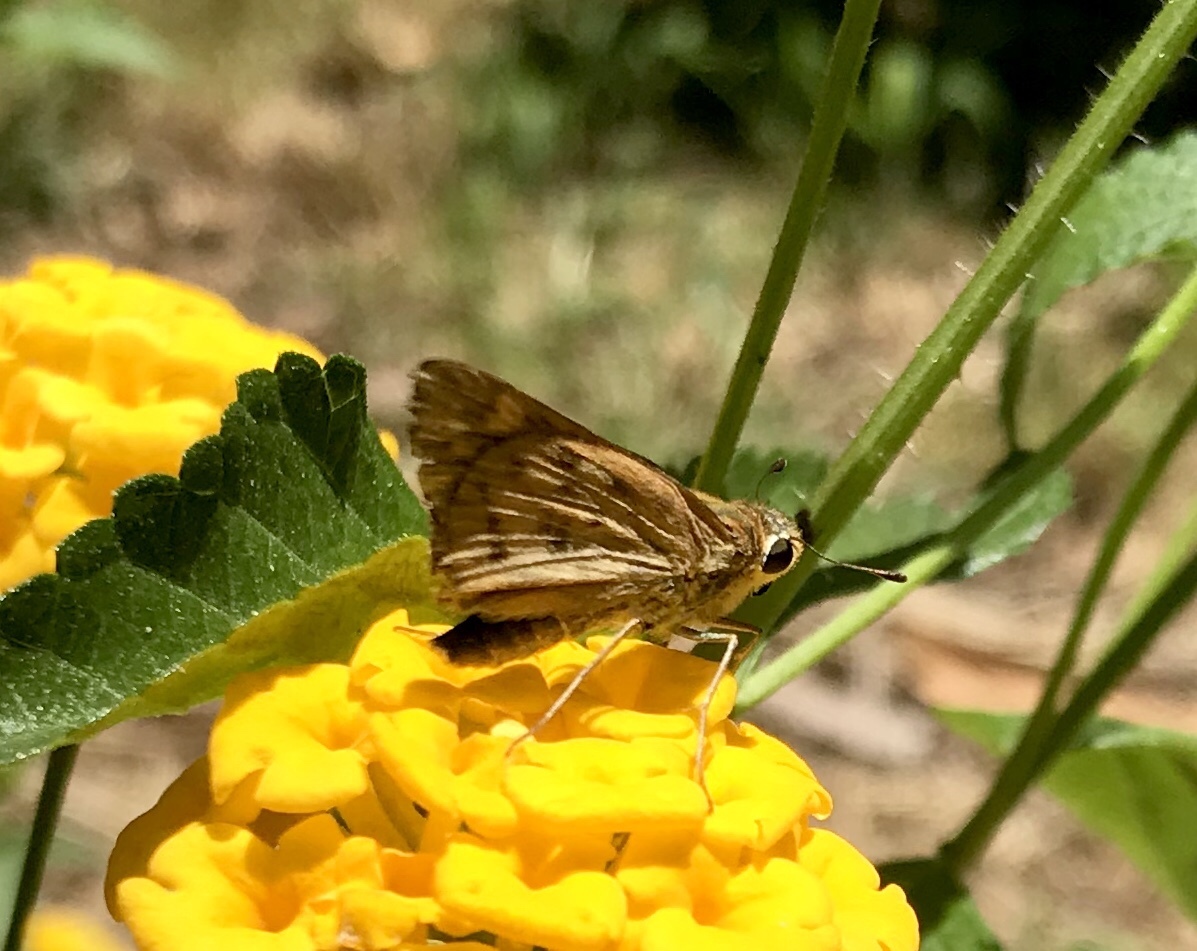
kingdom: Animalia
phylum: Arthropoda
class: Insecta
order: Lepidoptera
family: Hesperiidae
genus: Hylephila
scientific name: Hylephila phyleus
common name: Fiery skipper
